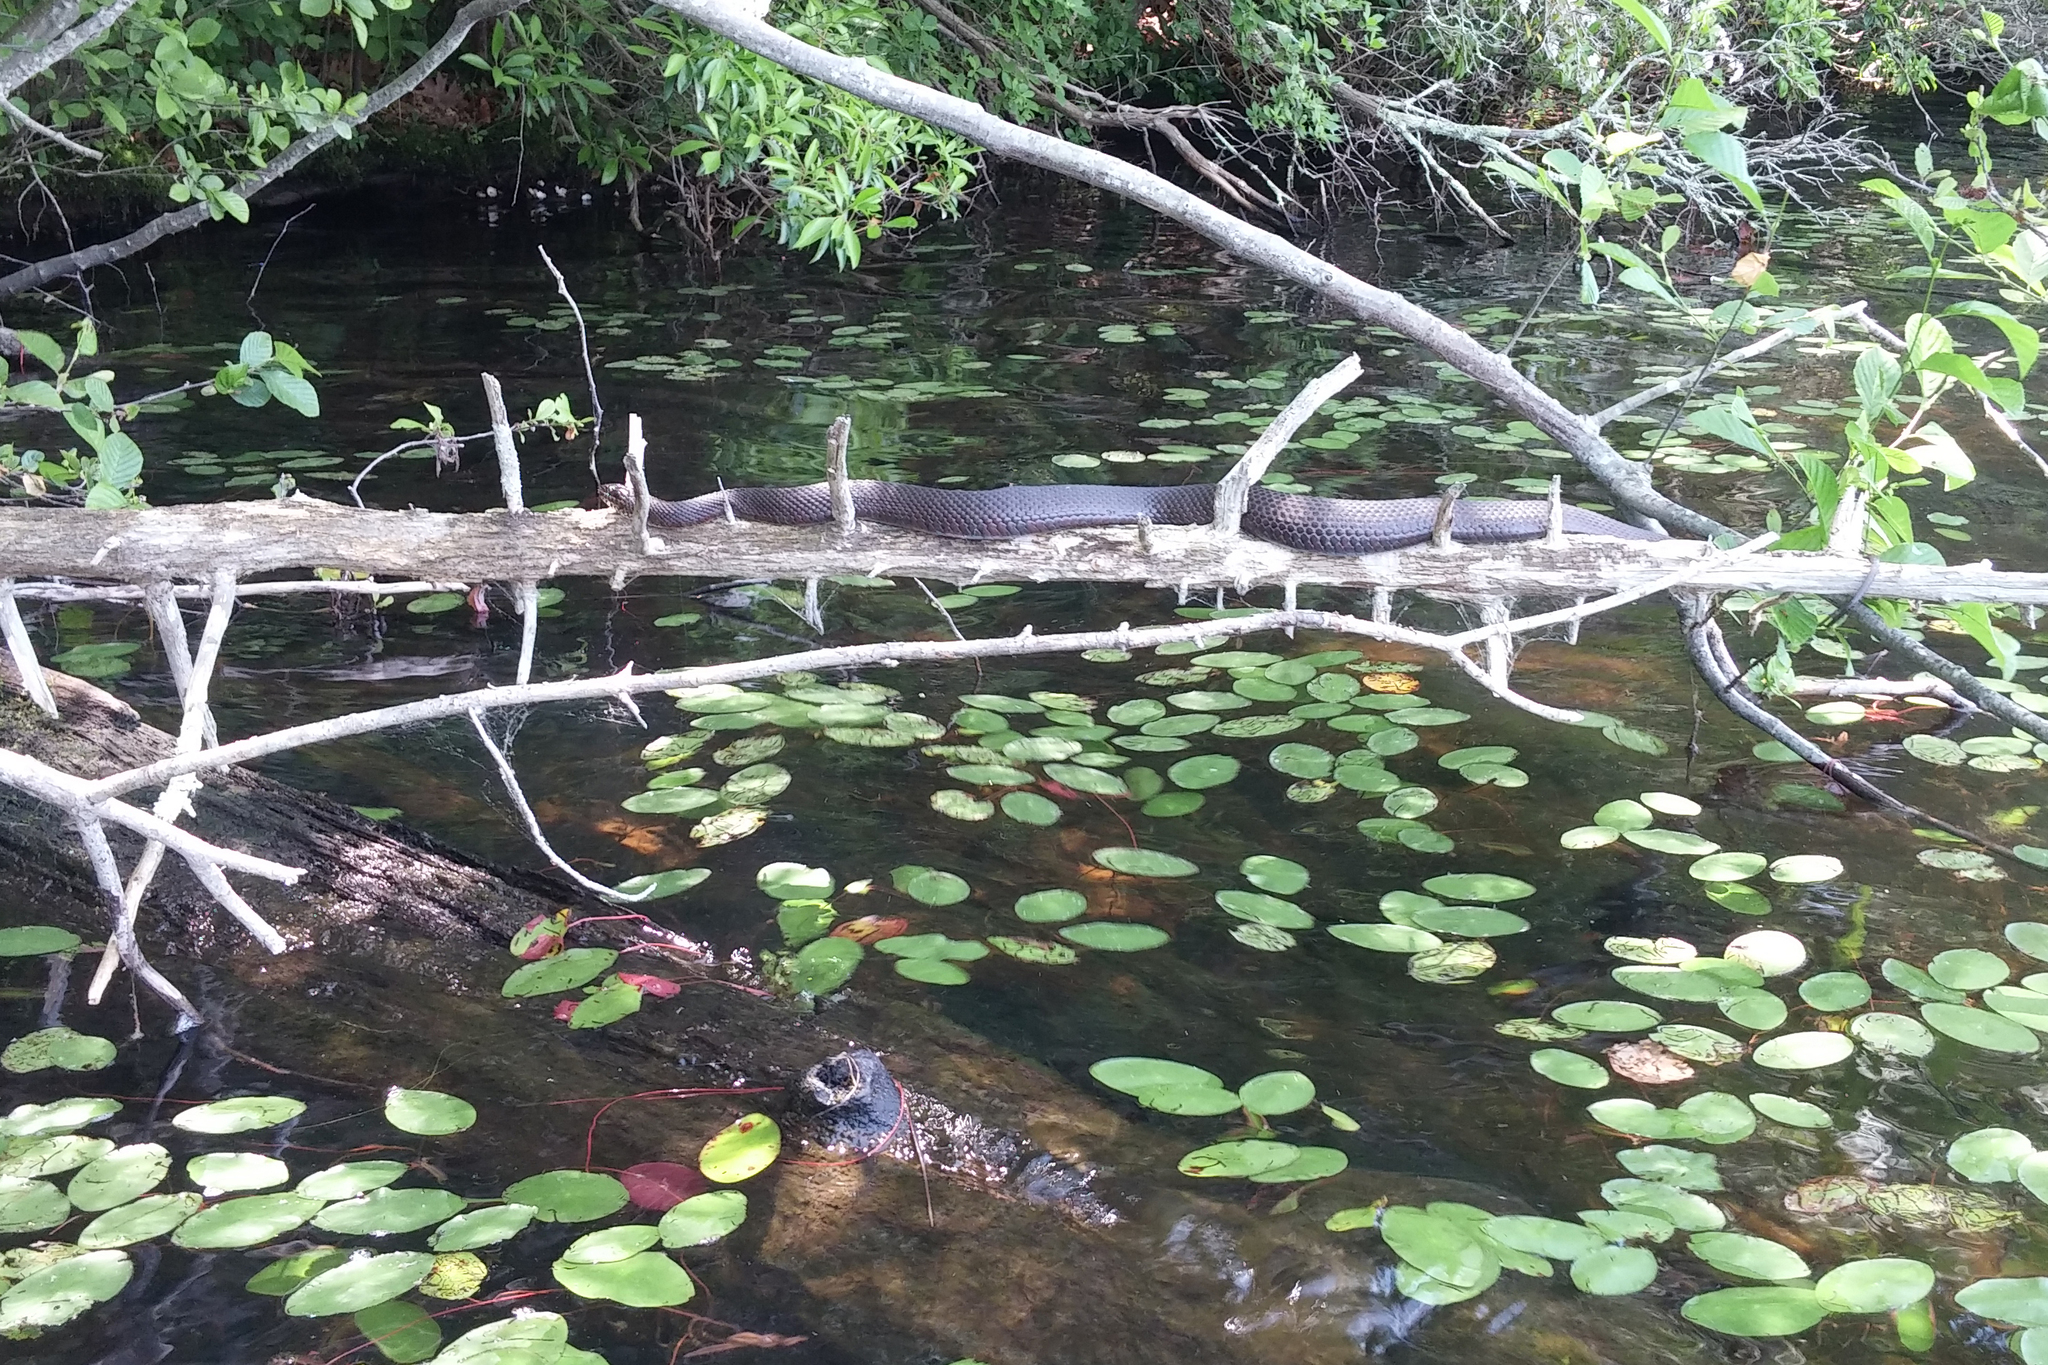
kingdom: Animalia
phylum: Chordata
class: Squamata
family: Colubridae
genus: Nerodia
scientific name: Nerodia sipedon
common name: Northern water snake
